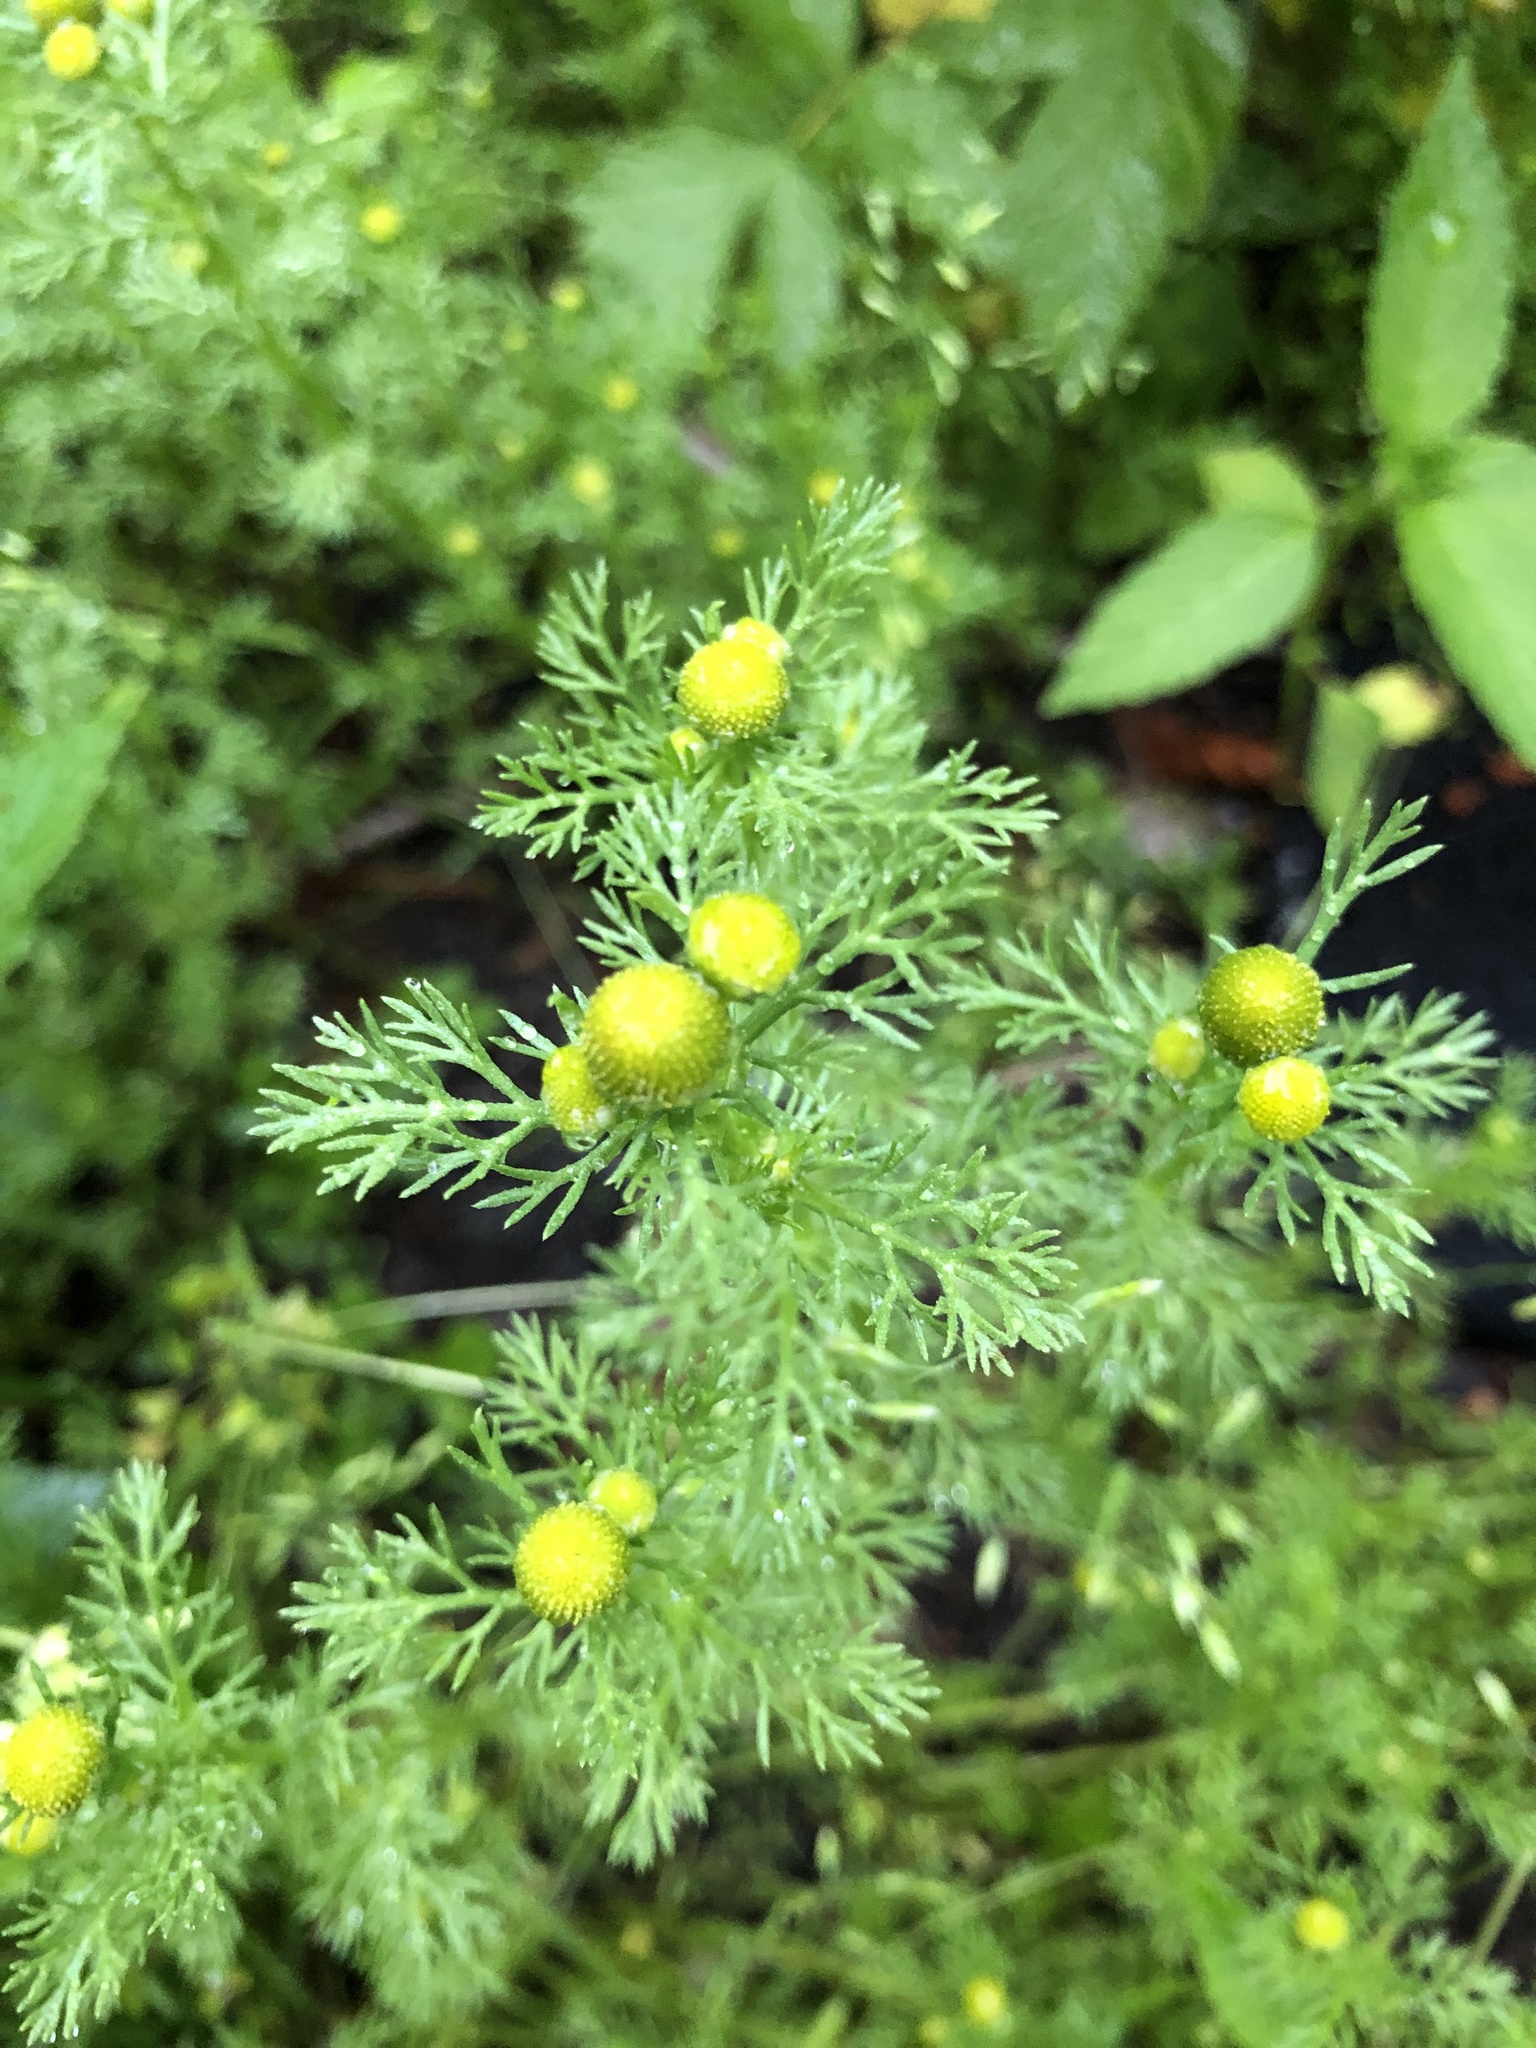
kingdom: Plantae
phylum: Tracheophyta
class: Magnoliopsida
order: Asterales
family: Asteraceae
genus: Matricaria
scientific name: Matricaria discoidea
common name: Disc mayweed
